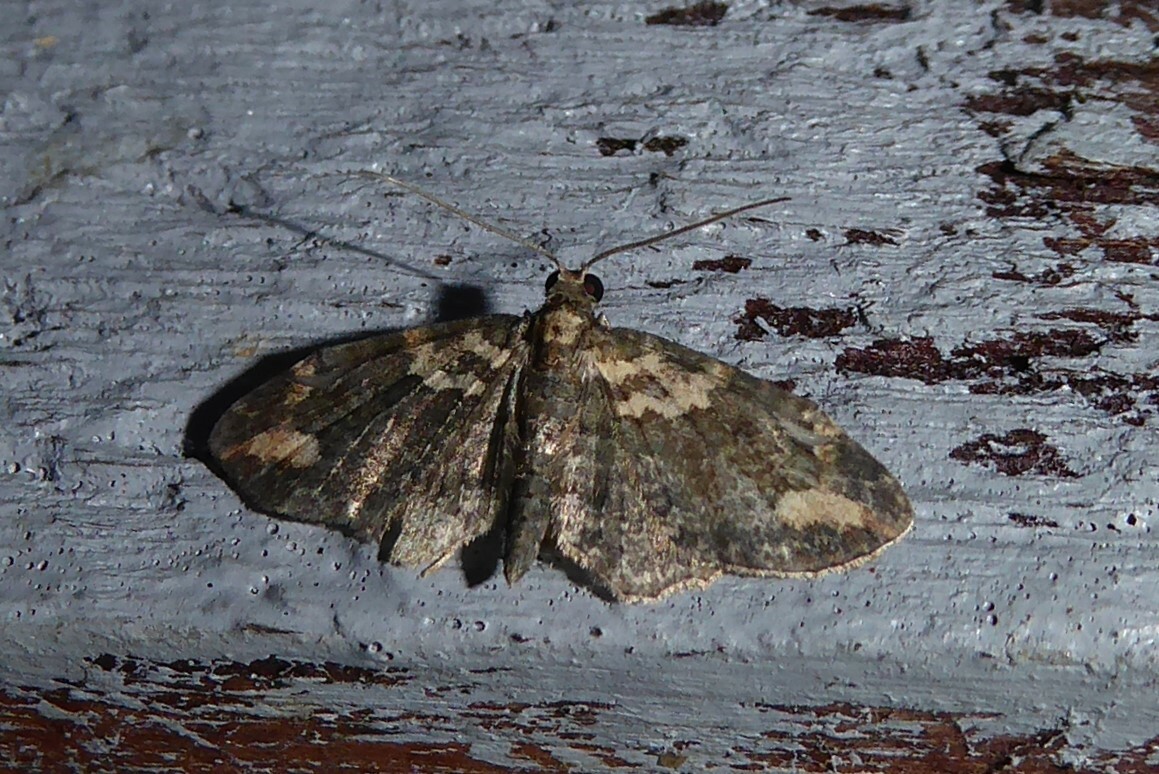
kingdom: Animalia
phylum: Arthropoda
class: Insecta
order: Lepidoptera
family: Geometridae
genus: Pasiphilodes
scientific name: Pasiphilodes testulata
